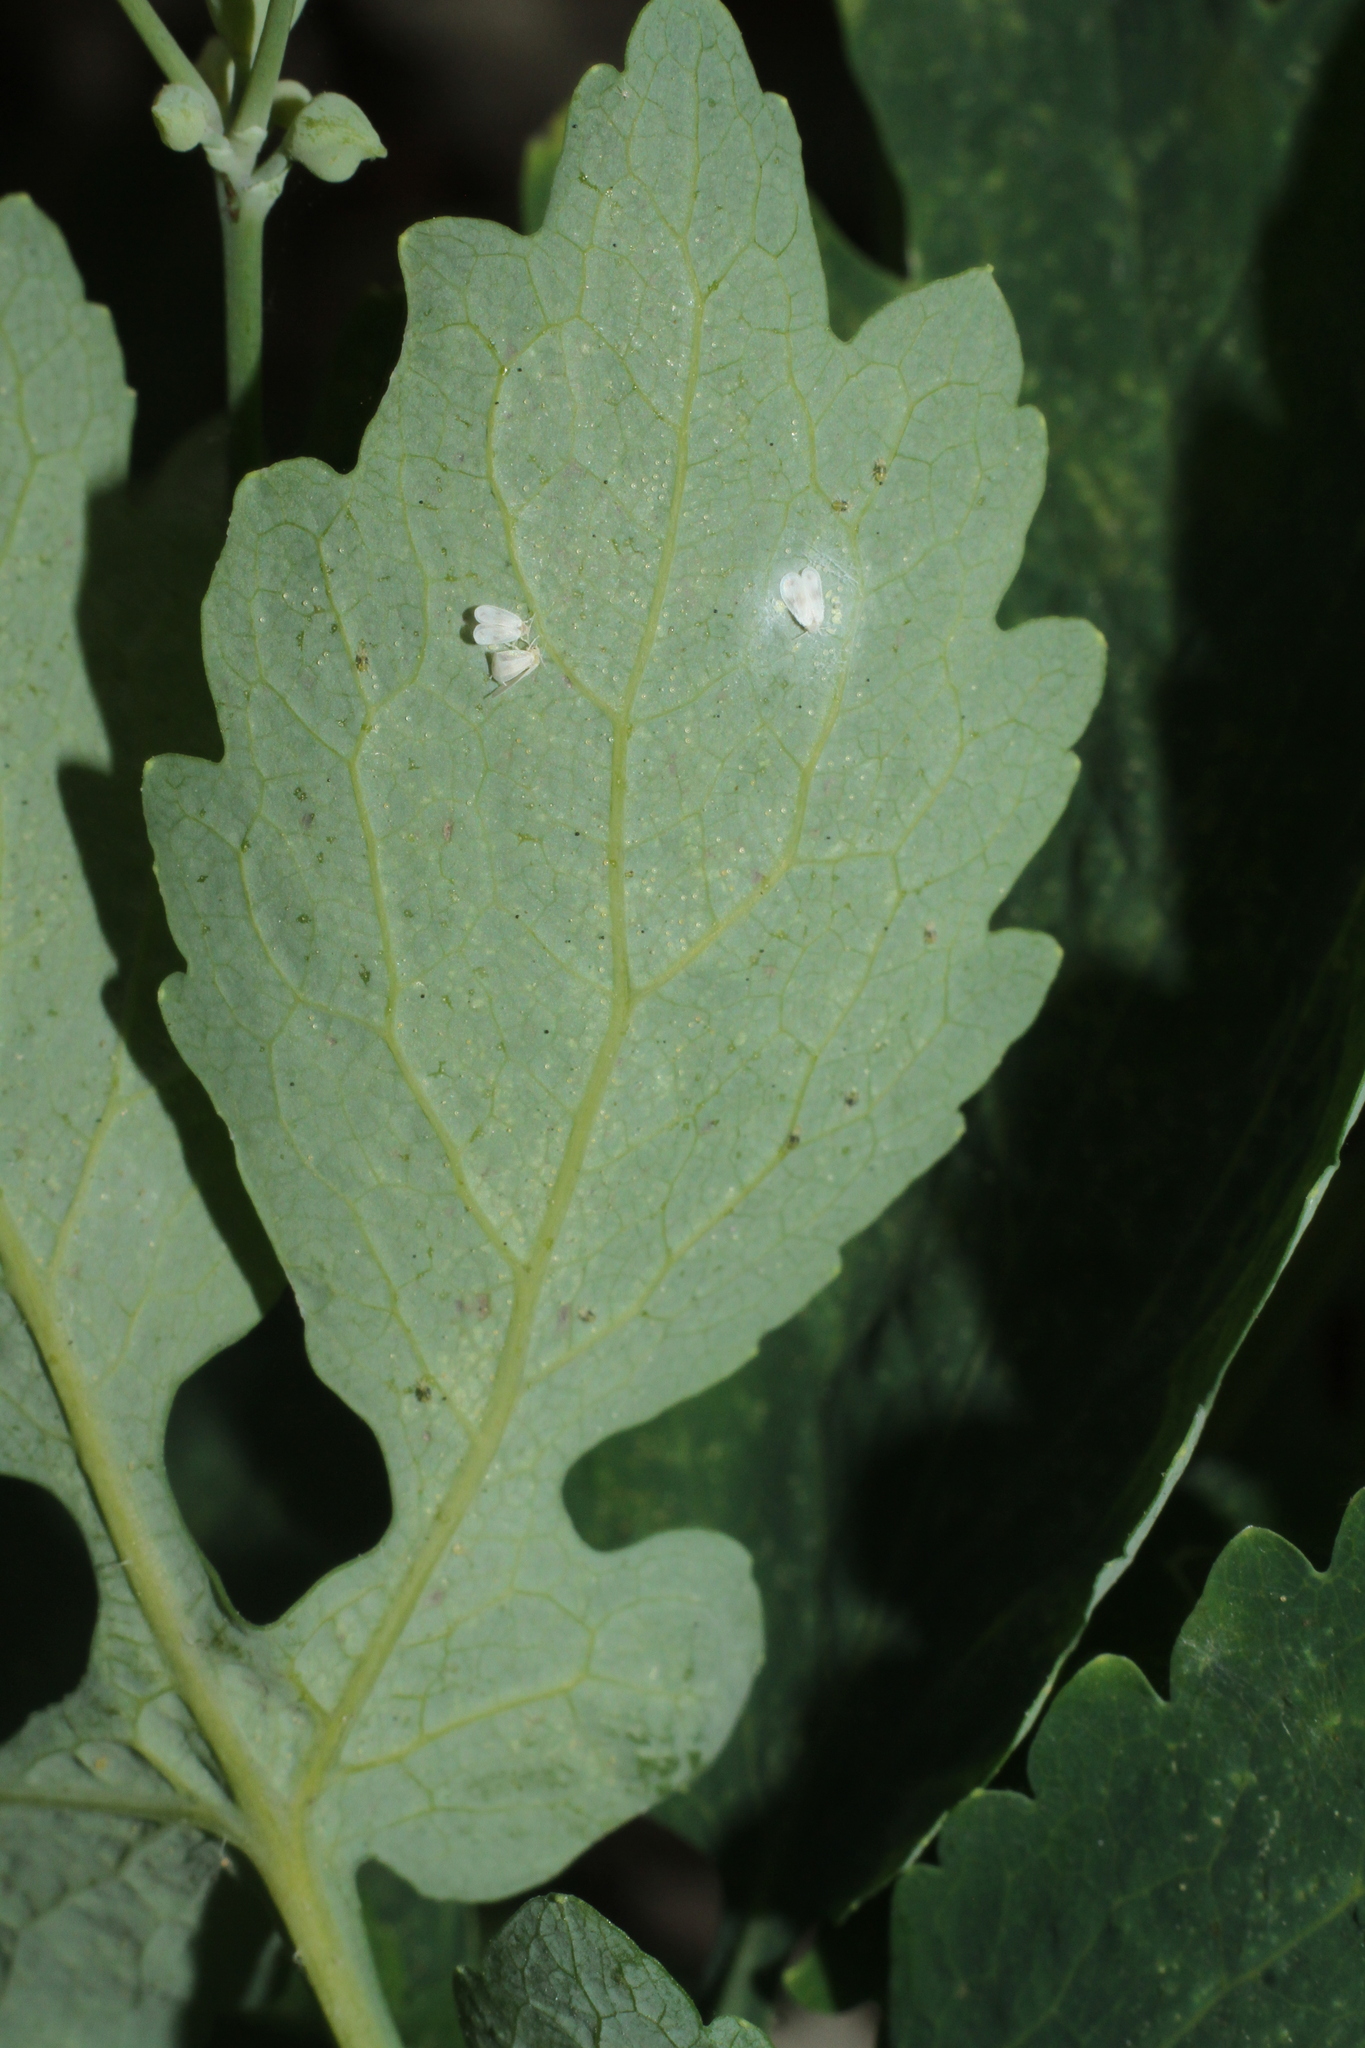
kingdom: Plantae
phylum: Tracheophyta
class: Magnoliopsida
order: Ranunculales
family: Papaveraceae
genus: Chelidonium
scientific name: Chelidonium majus
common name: Greater celandine
